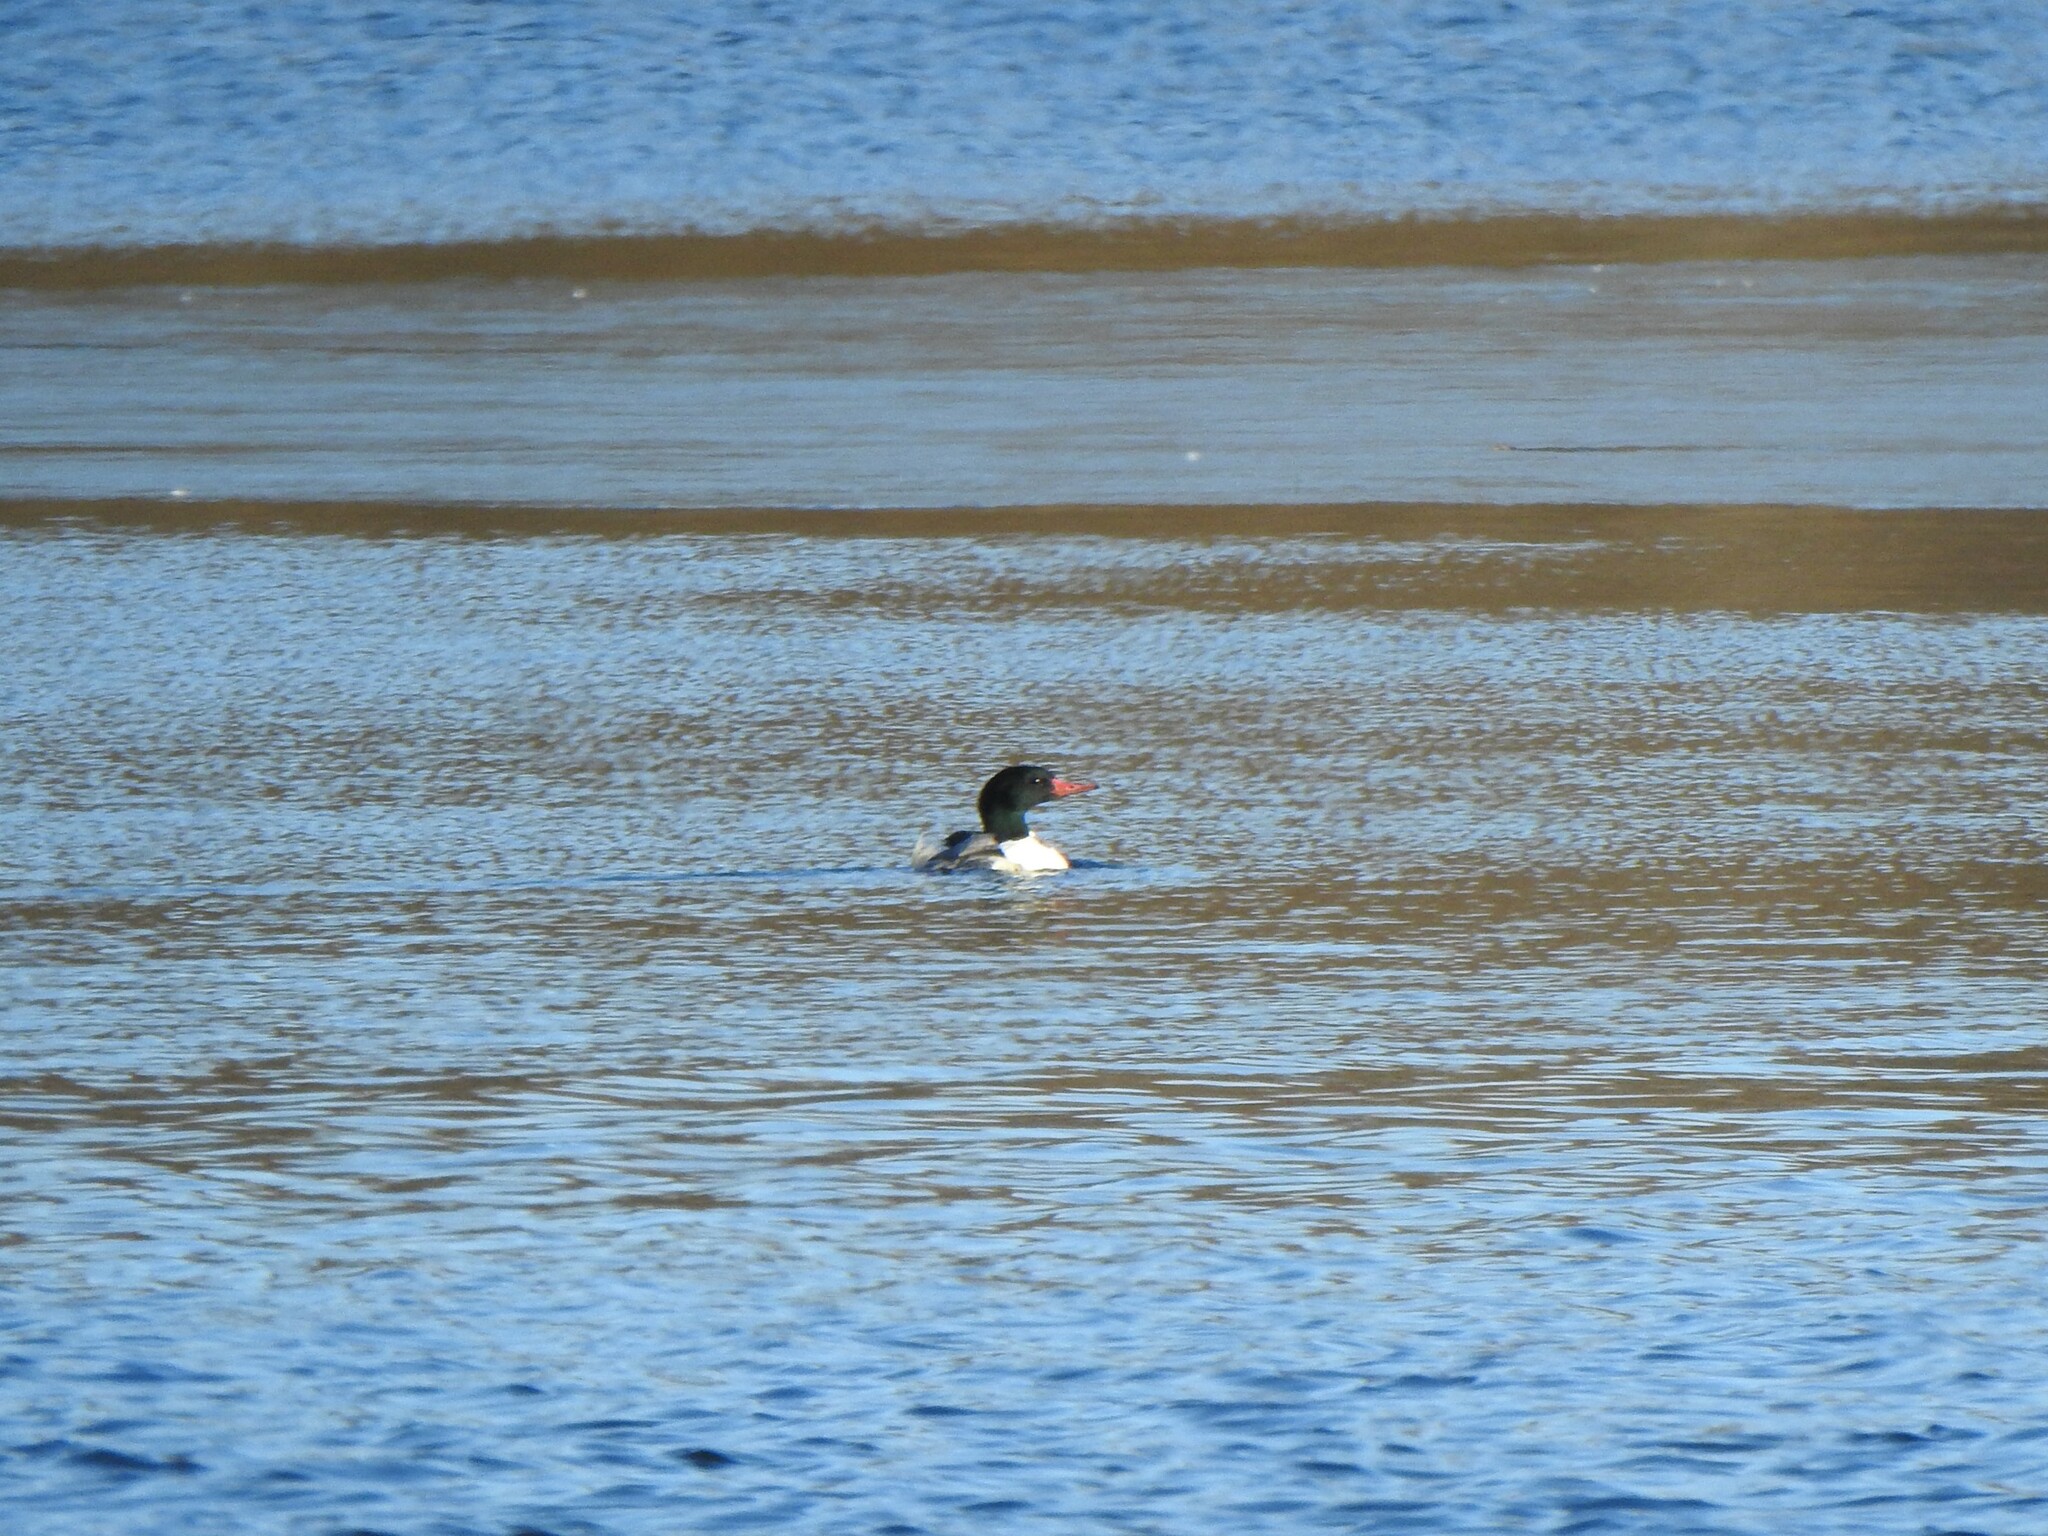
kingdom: Animalia
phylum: Chordata
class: Aves
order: Anseriformes
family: Anatidae
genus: Mergus
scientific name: Mergus merganser
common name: Common merganser
